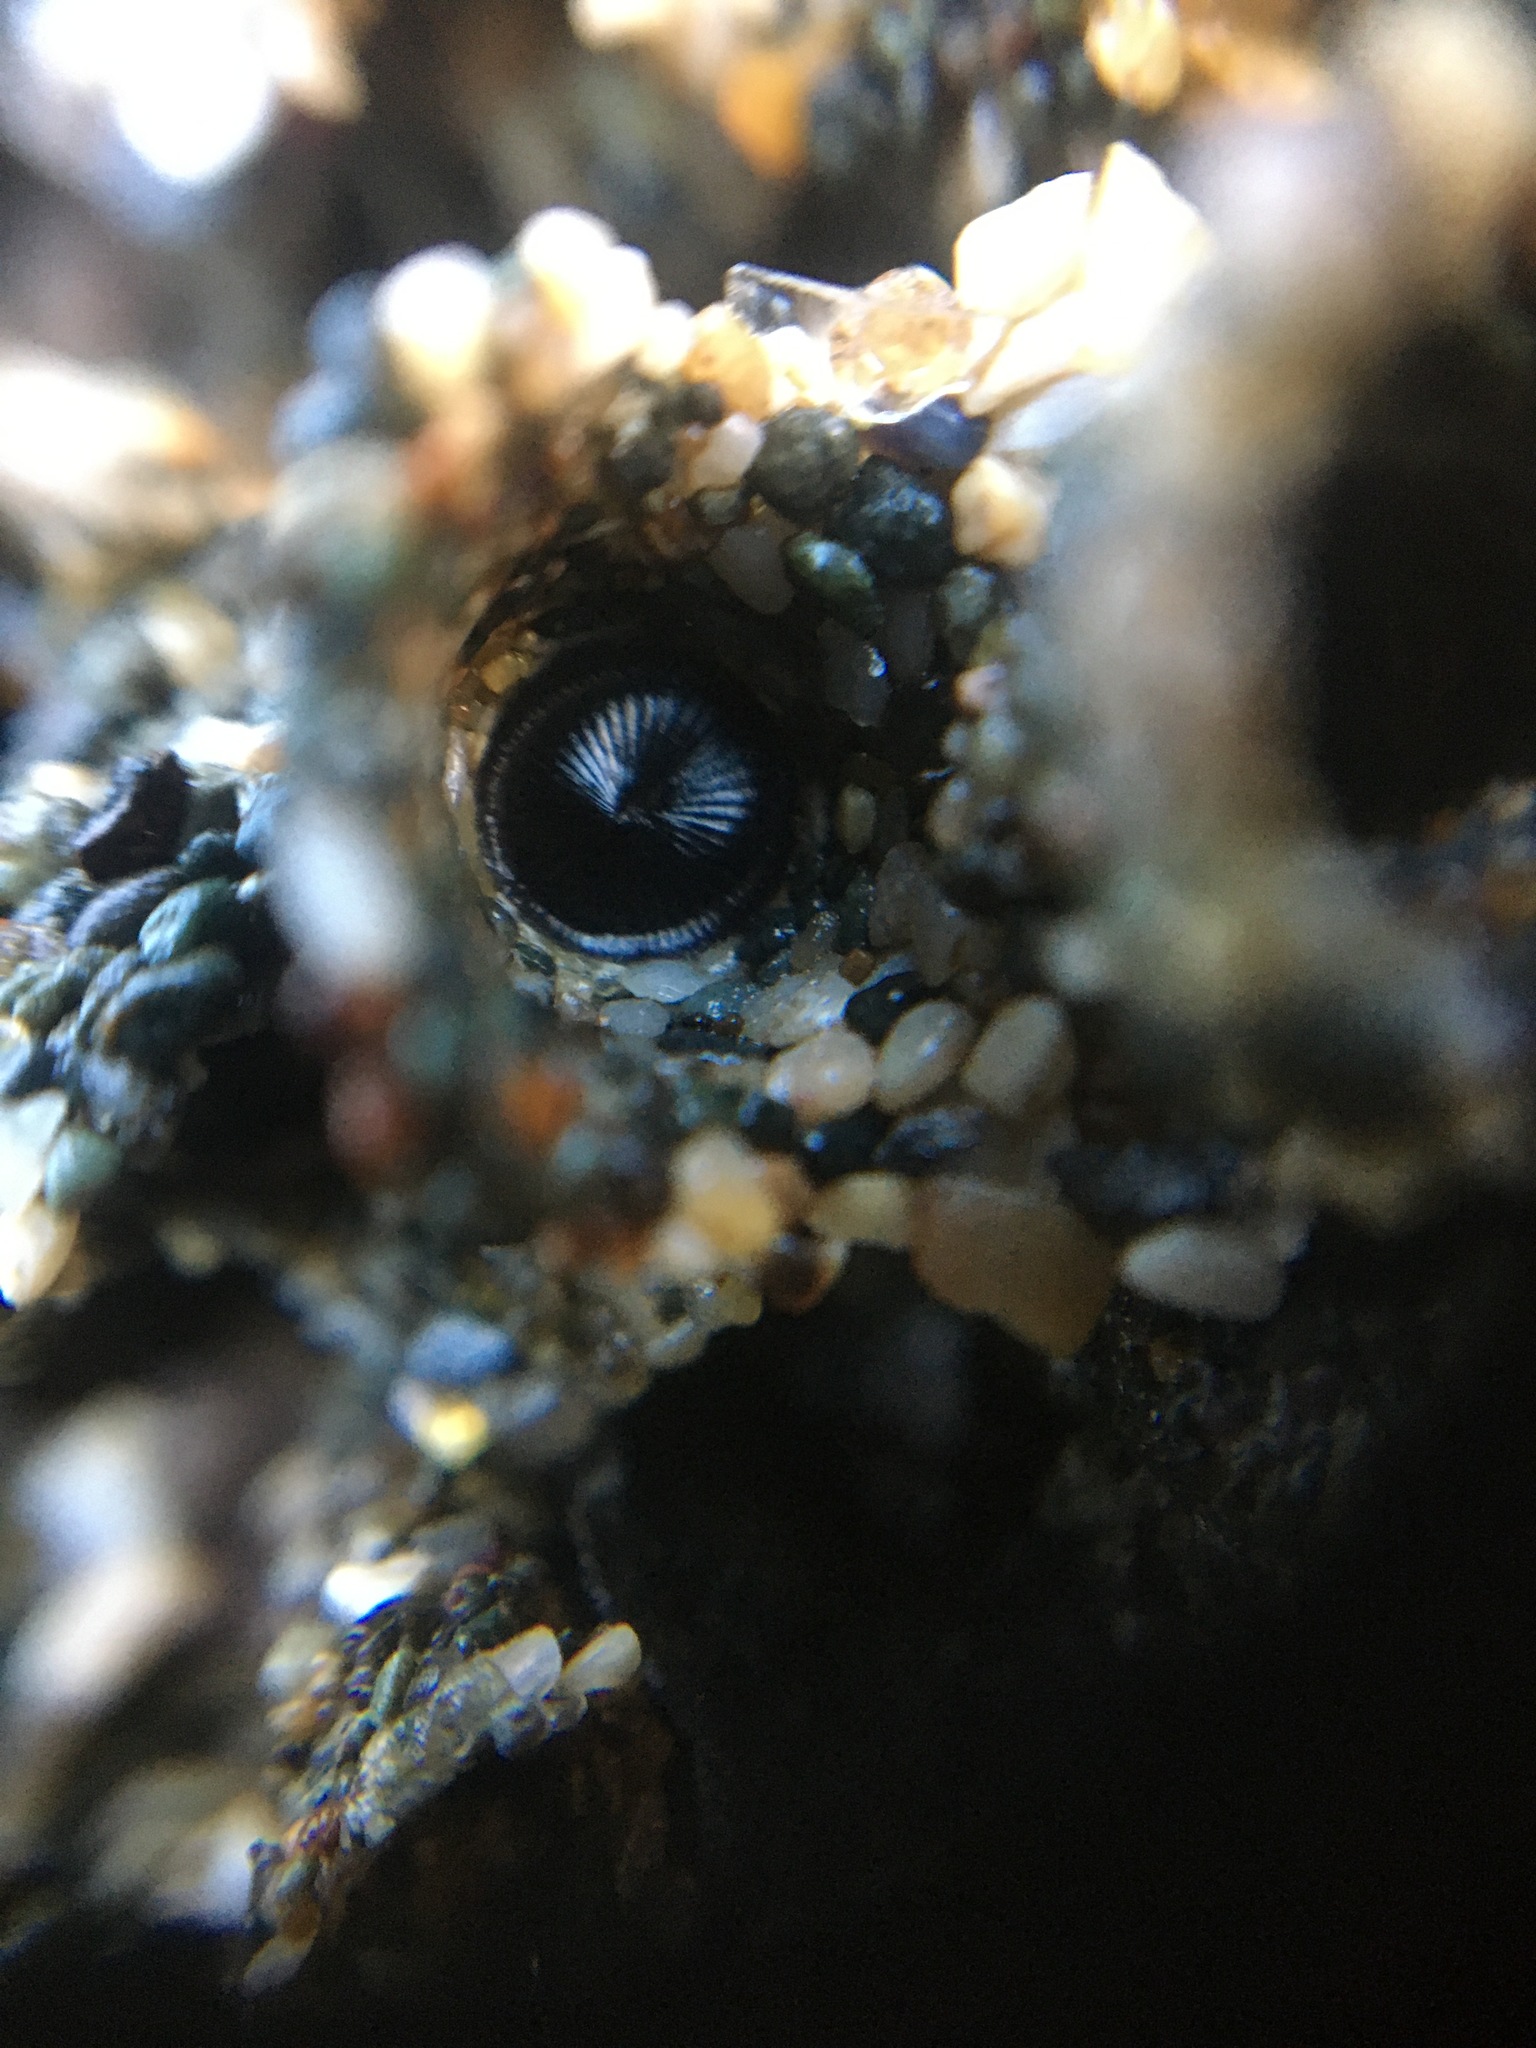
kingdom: Animalia
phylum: Annelida
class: Polychaeta
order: Sabellida
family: Sabellariidae
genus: Phragmatopoma
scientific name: Phragmatopoma californica
